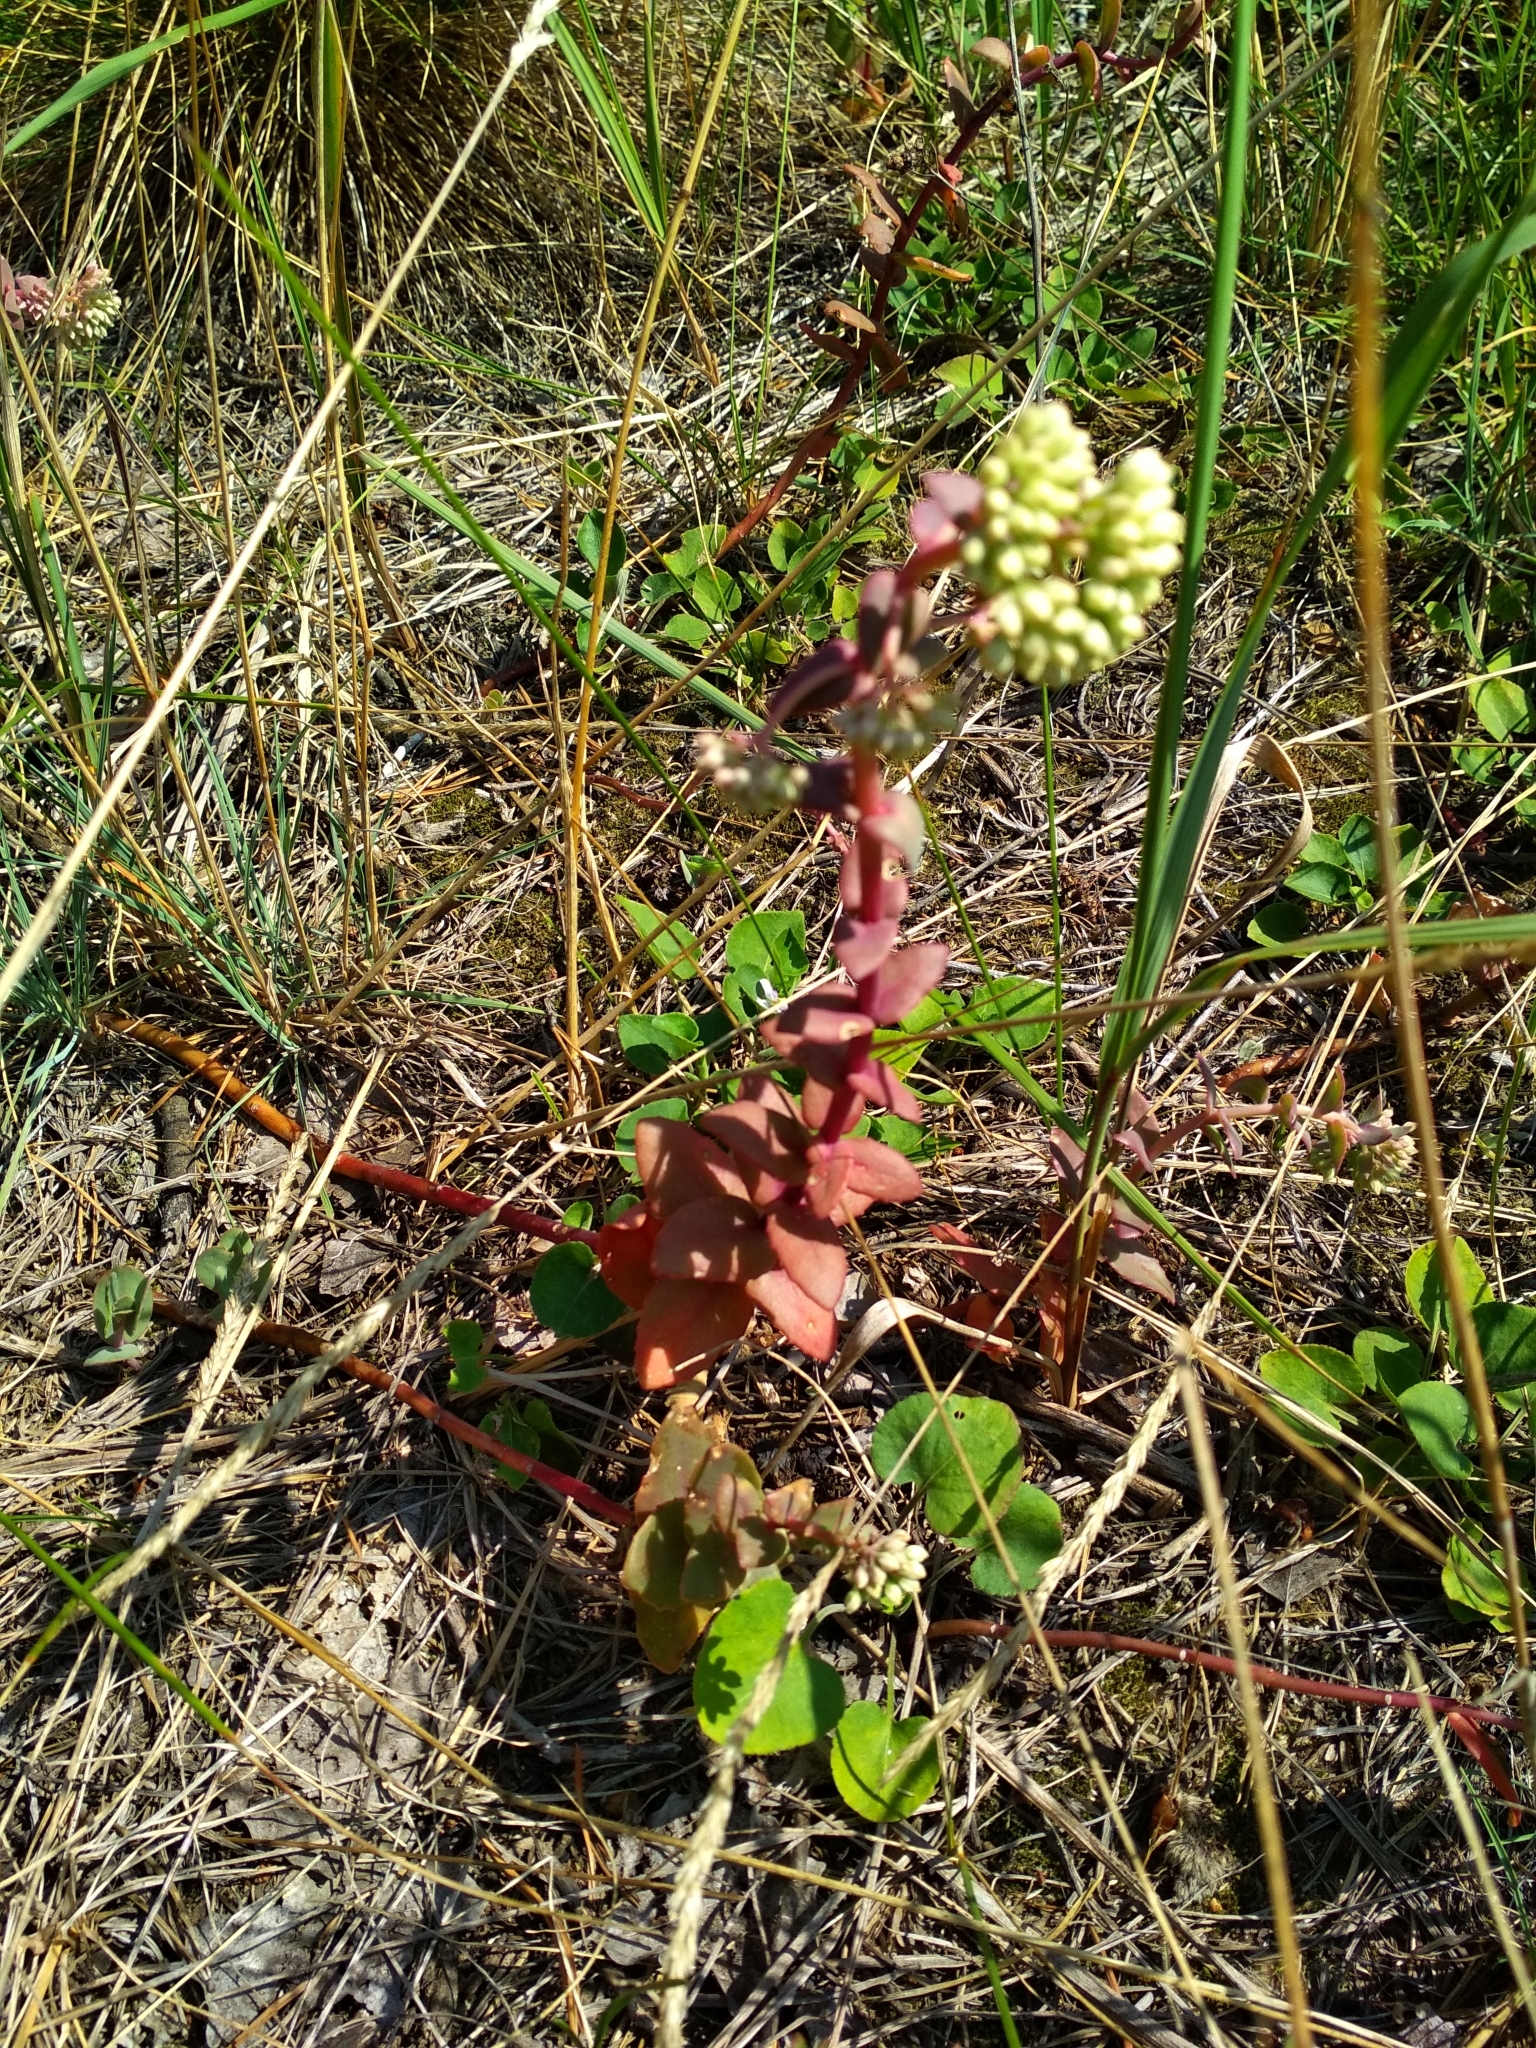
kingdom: Plantae
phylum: Tracheophyta
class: Magnoliopsida
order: Saxifragales
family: Crassulaceae
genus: Hylotelephium
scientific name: Hylotelephium maximum
